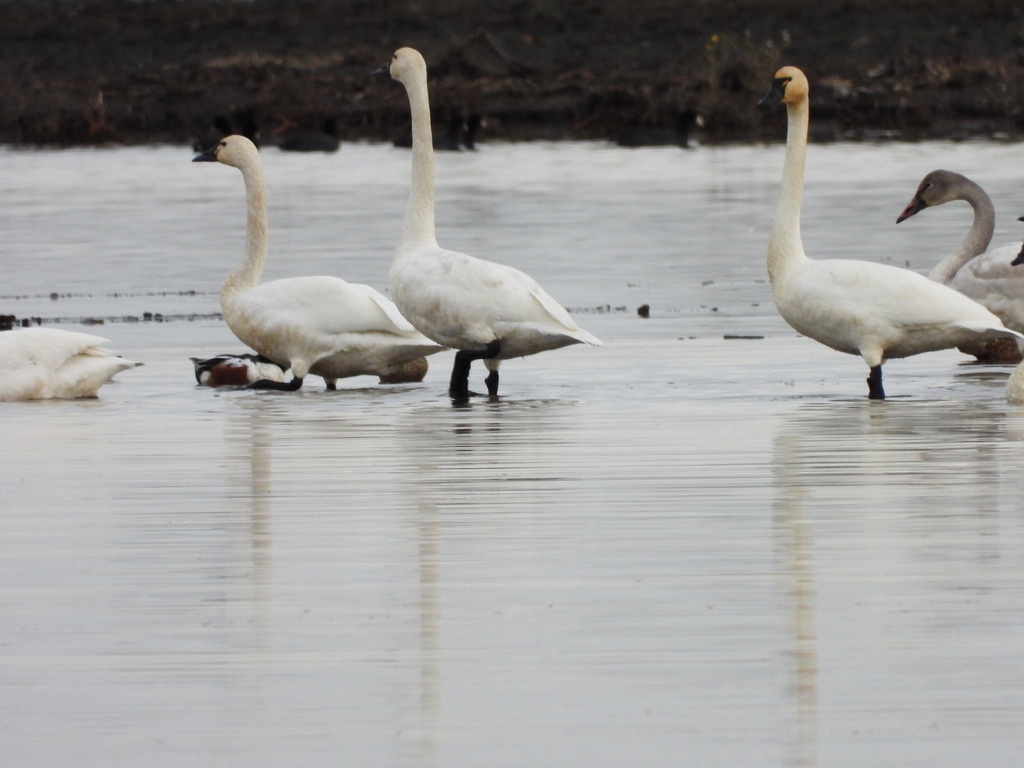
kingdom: Animalia
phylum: Chordata
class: Aves
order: Anseriformes
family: Anatidae
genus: Cygnus
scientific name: Cygnus columbianus
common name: Tundra swan
